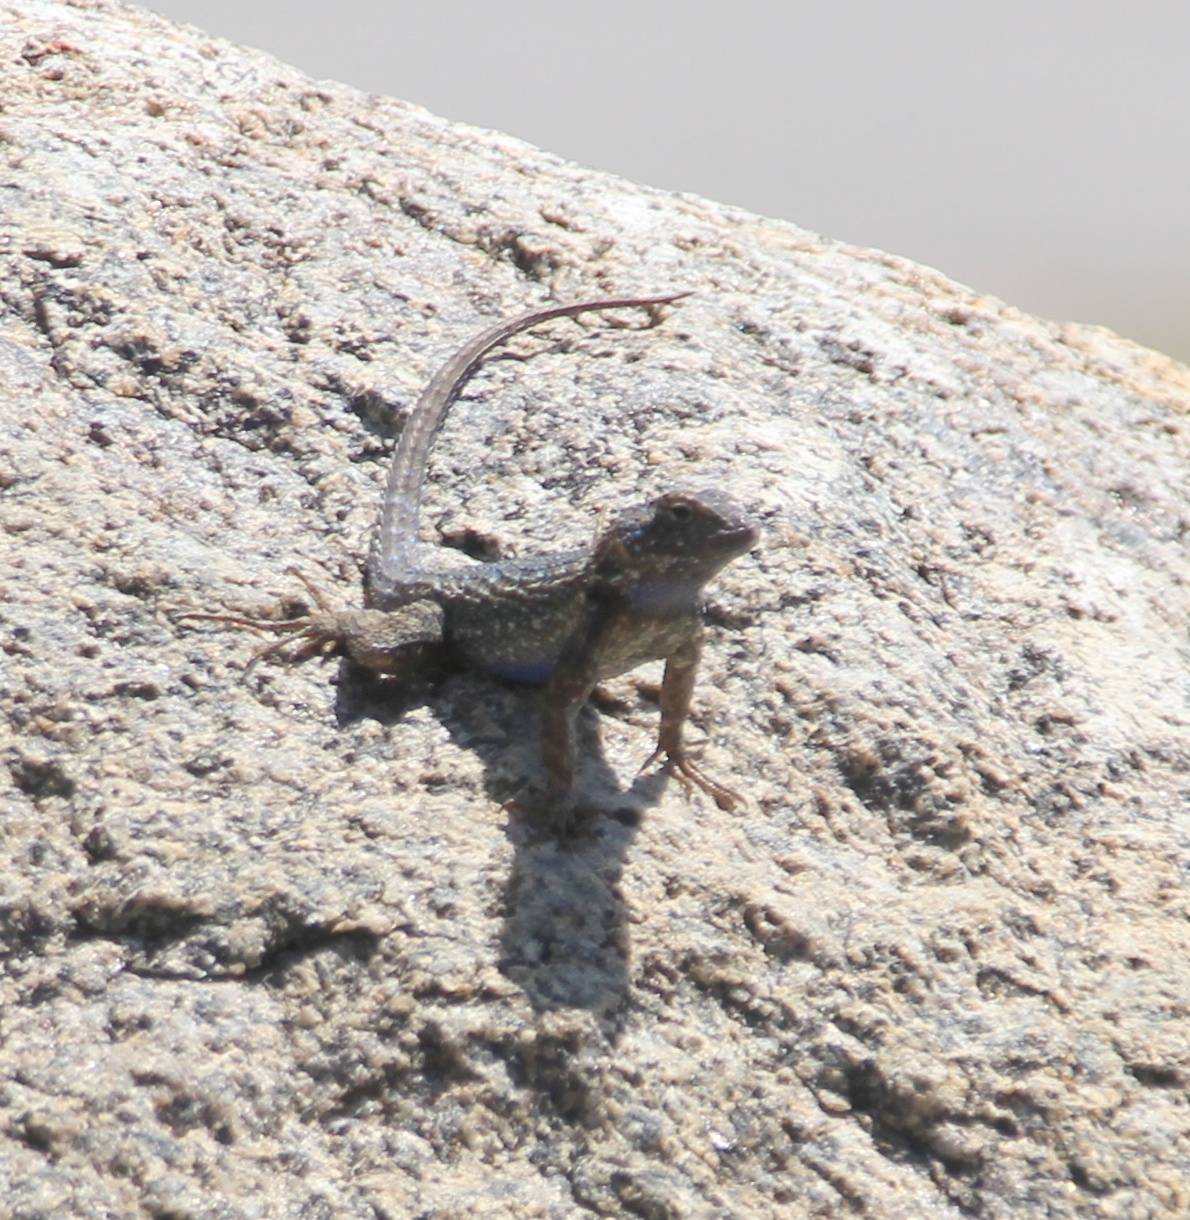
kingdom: Animalia
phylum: Chordata
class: Squamata
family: Phrynosomatidae
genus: Sceloporus
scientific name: Sceloporus occidentalis
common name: Western fence lizard
